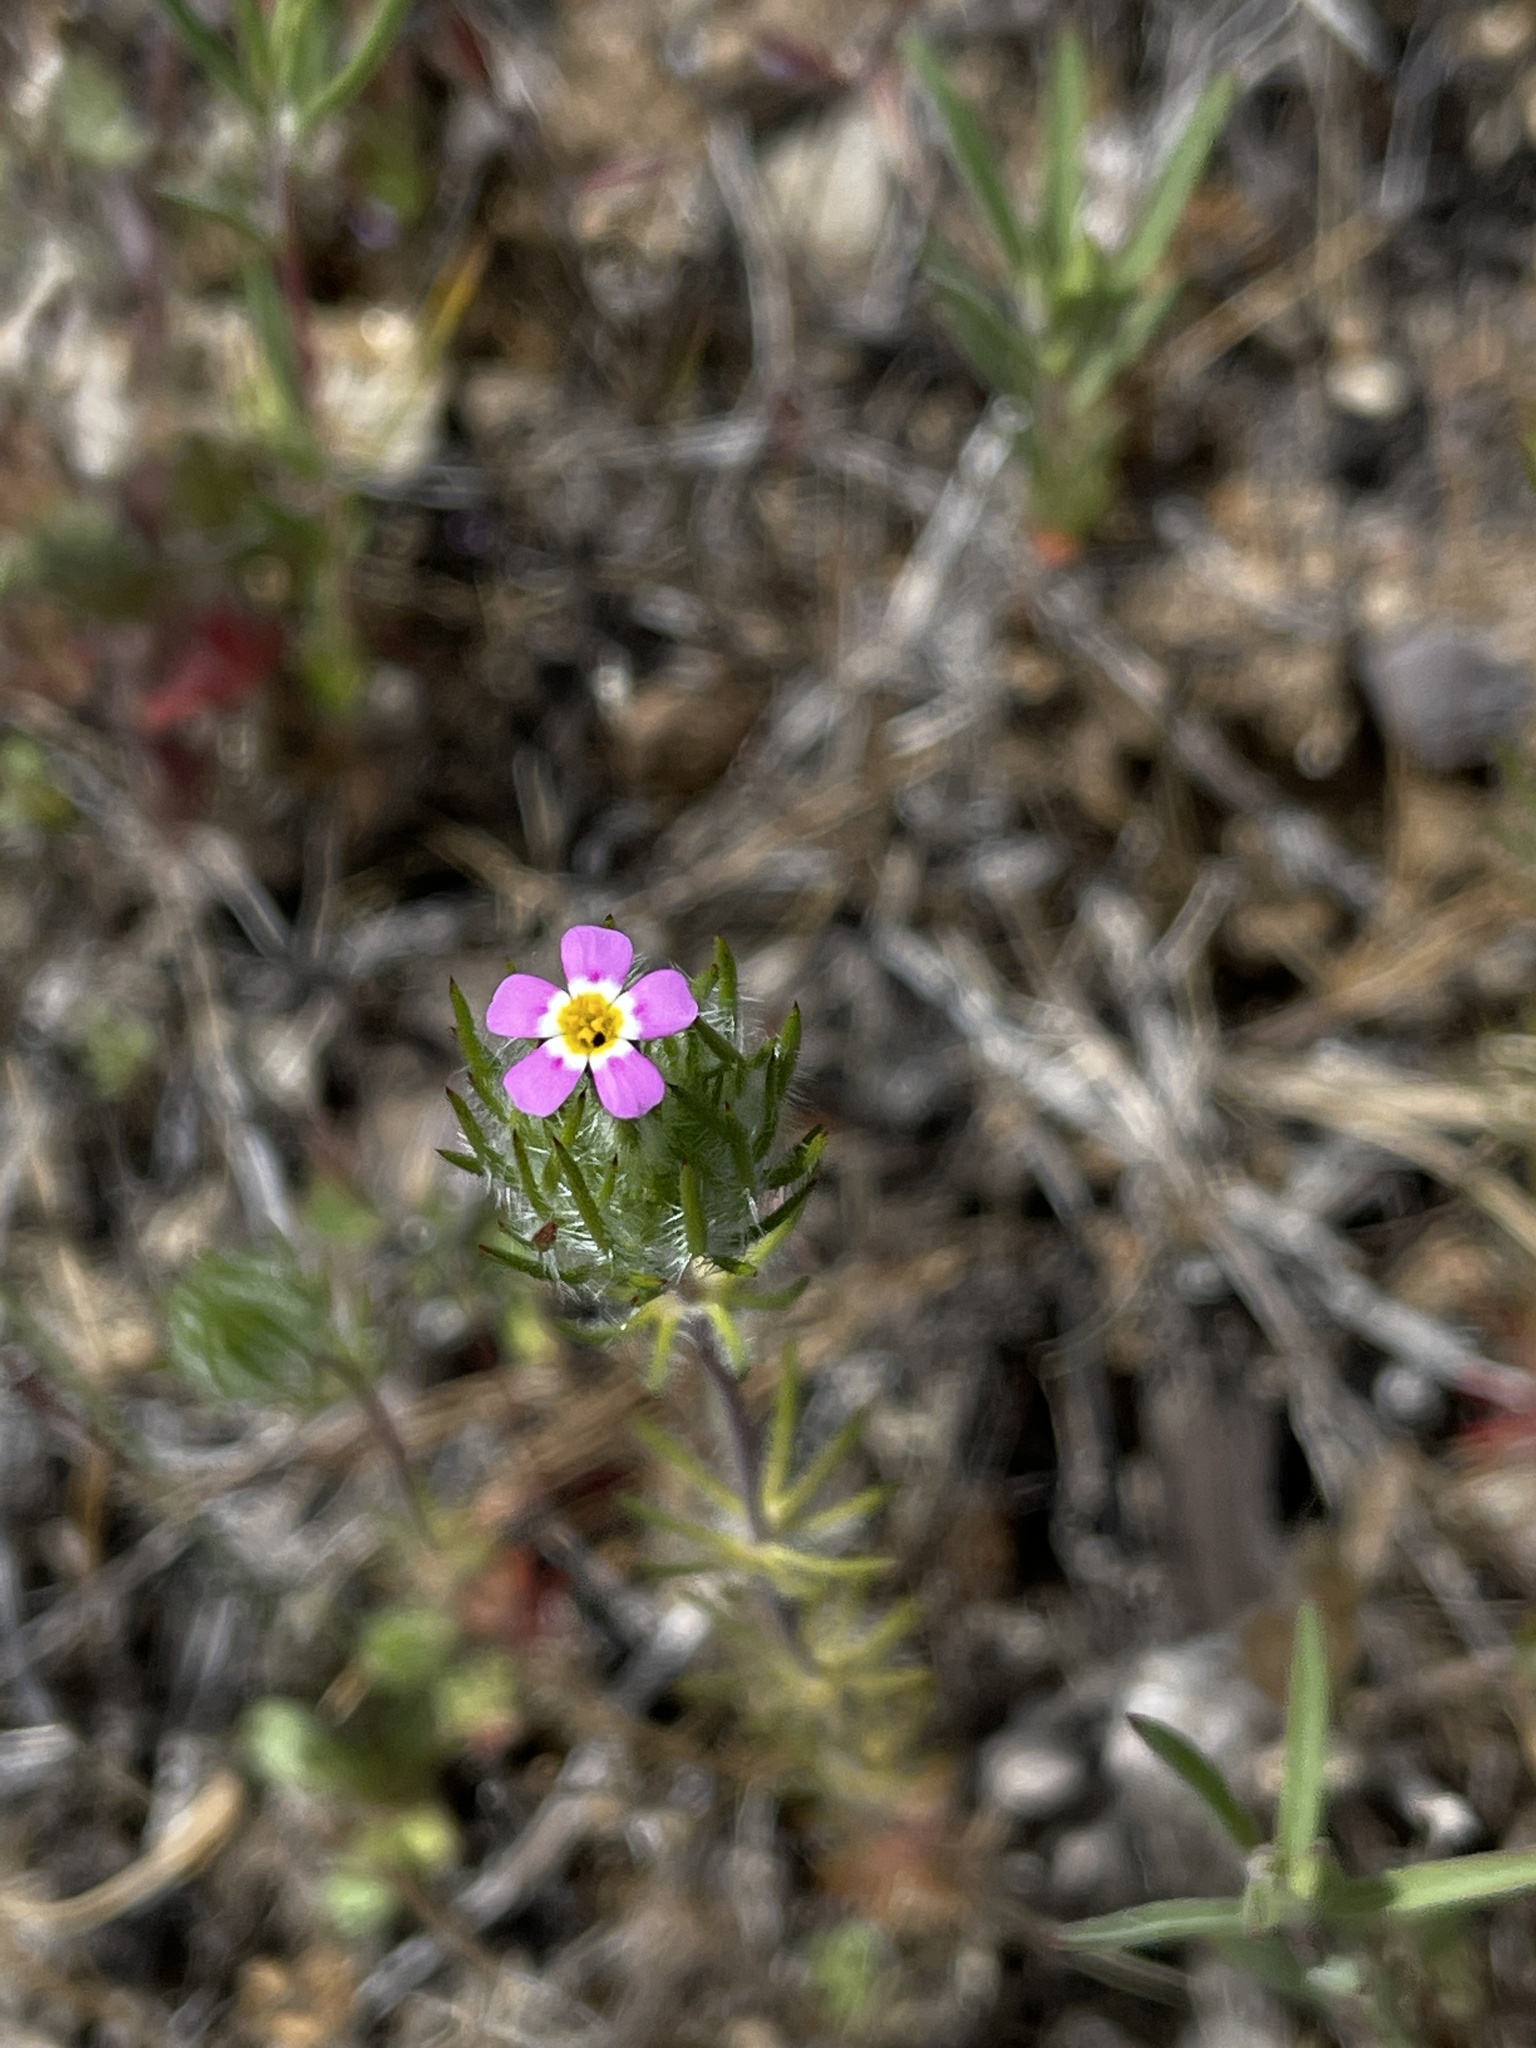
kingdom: Plantae
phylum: Tracheophyta
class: Magnoliopsida
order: Ericales
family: Polemoniaceae
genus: Leptosiphon
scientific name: Leptosiphon ciliatus
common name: Whiskerbrush
